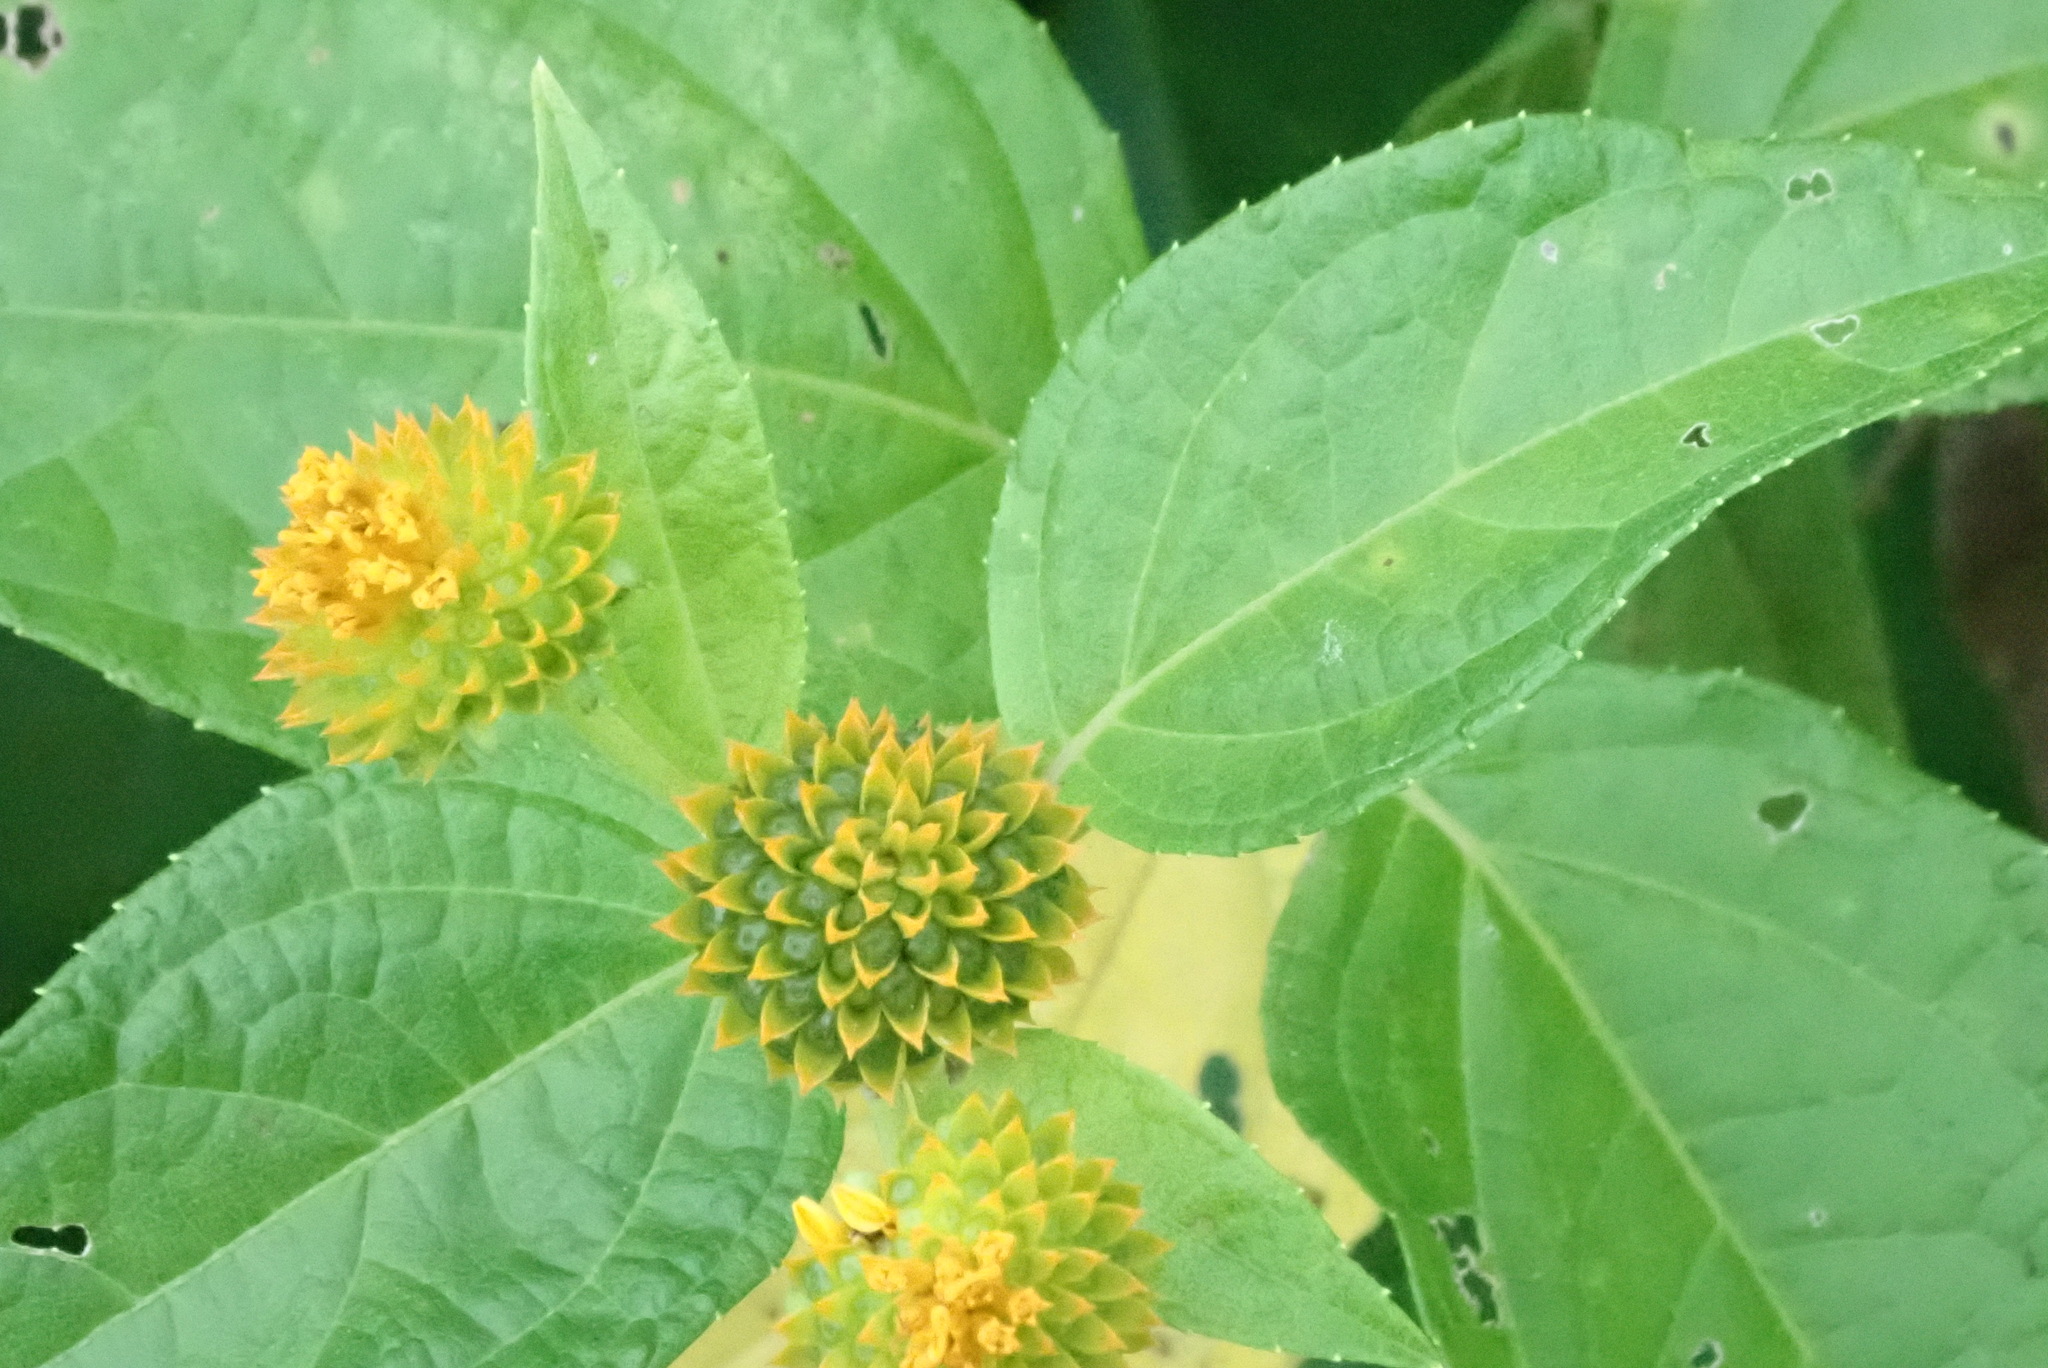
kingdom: Plantae
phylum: Tracheophyta
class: Magnoliopsida
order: Asterales
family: Asteraceae
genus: Tilesia
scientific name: Tilesia baccata
